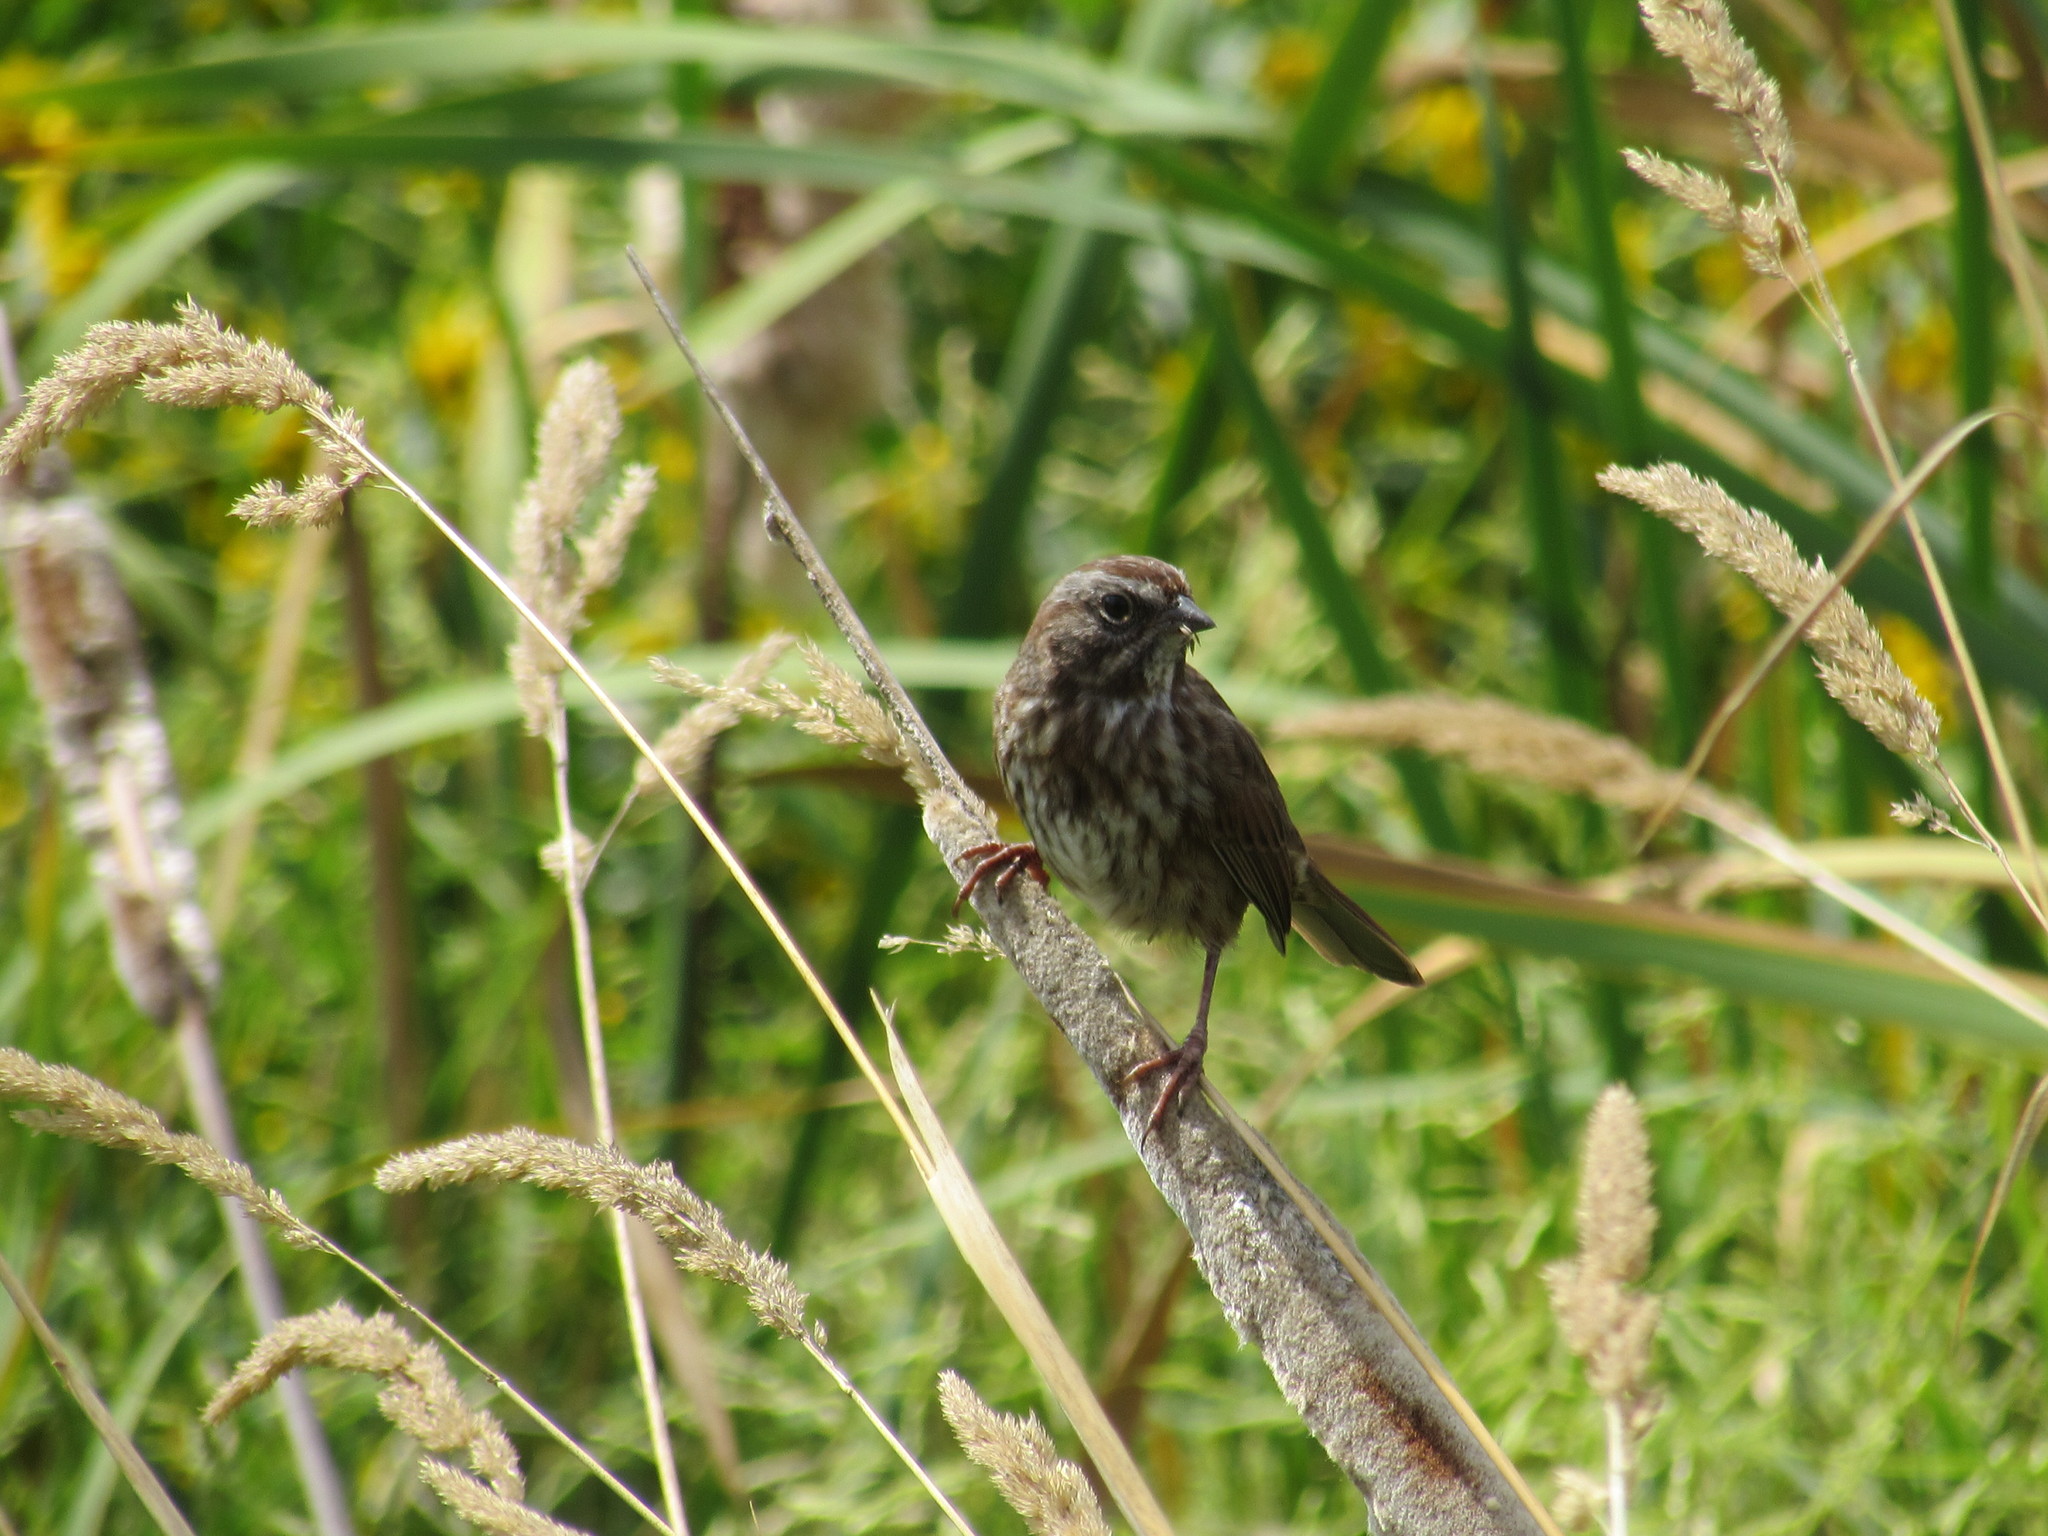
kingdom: Animalia
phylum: Chordata
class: Aves
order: Passeriformes
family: Passerellidae
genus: Melospiza
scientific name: Melospiza melodia
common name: Song sparrow
